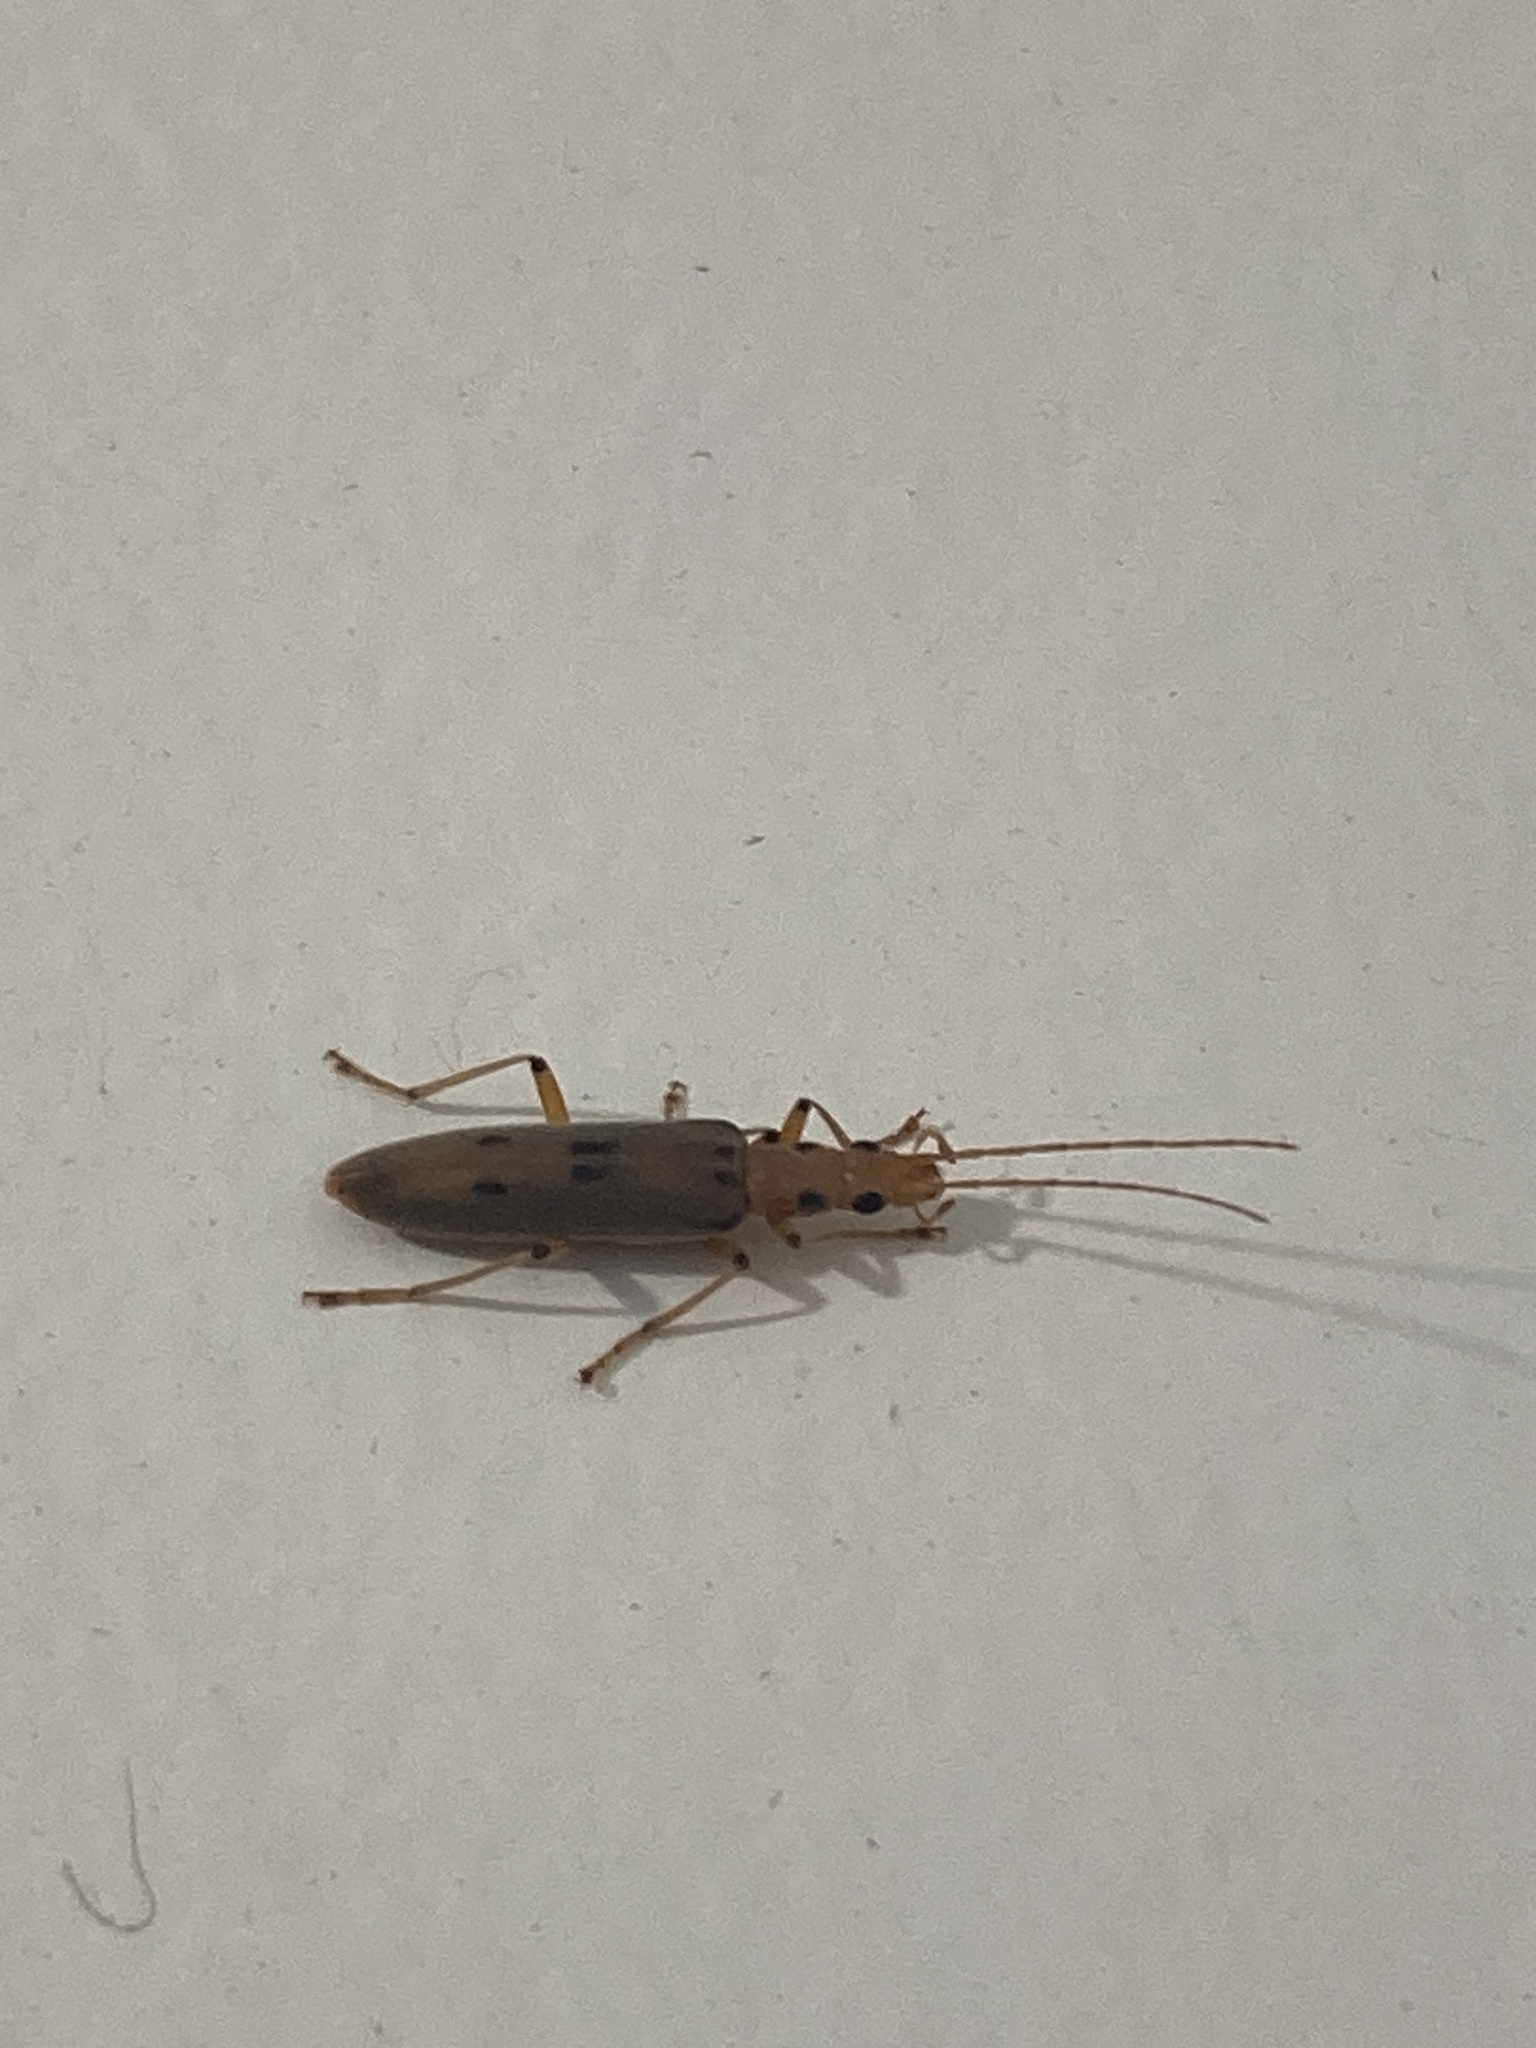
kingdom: Animalia
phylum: Arthropoda
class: Insecta
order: Coleoptera
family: Oedemeridae
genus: Parisopalpus
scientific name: Parisopalpus
